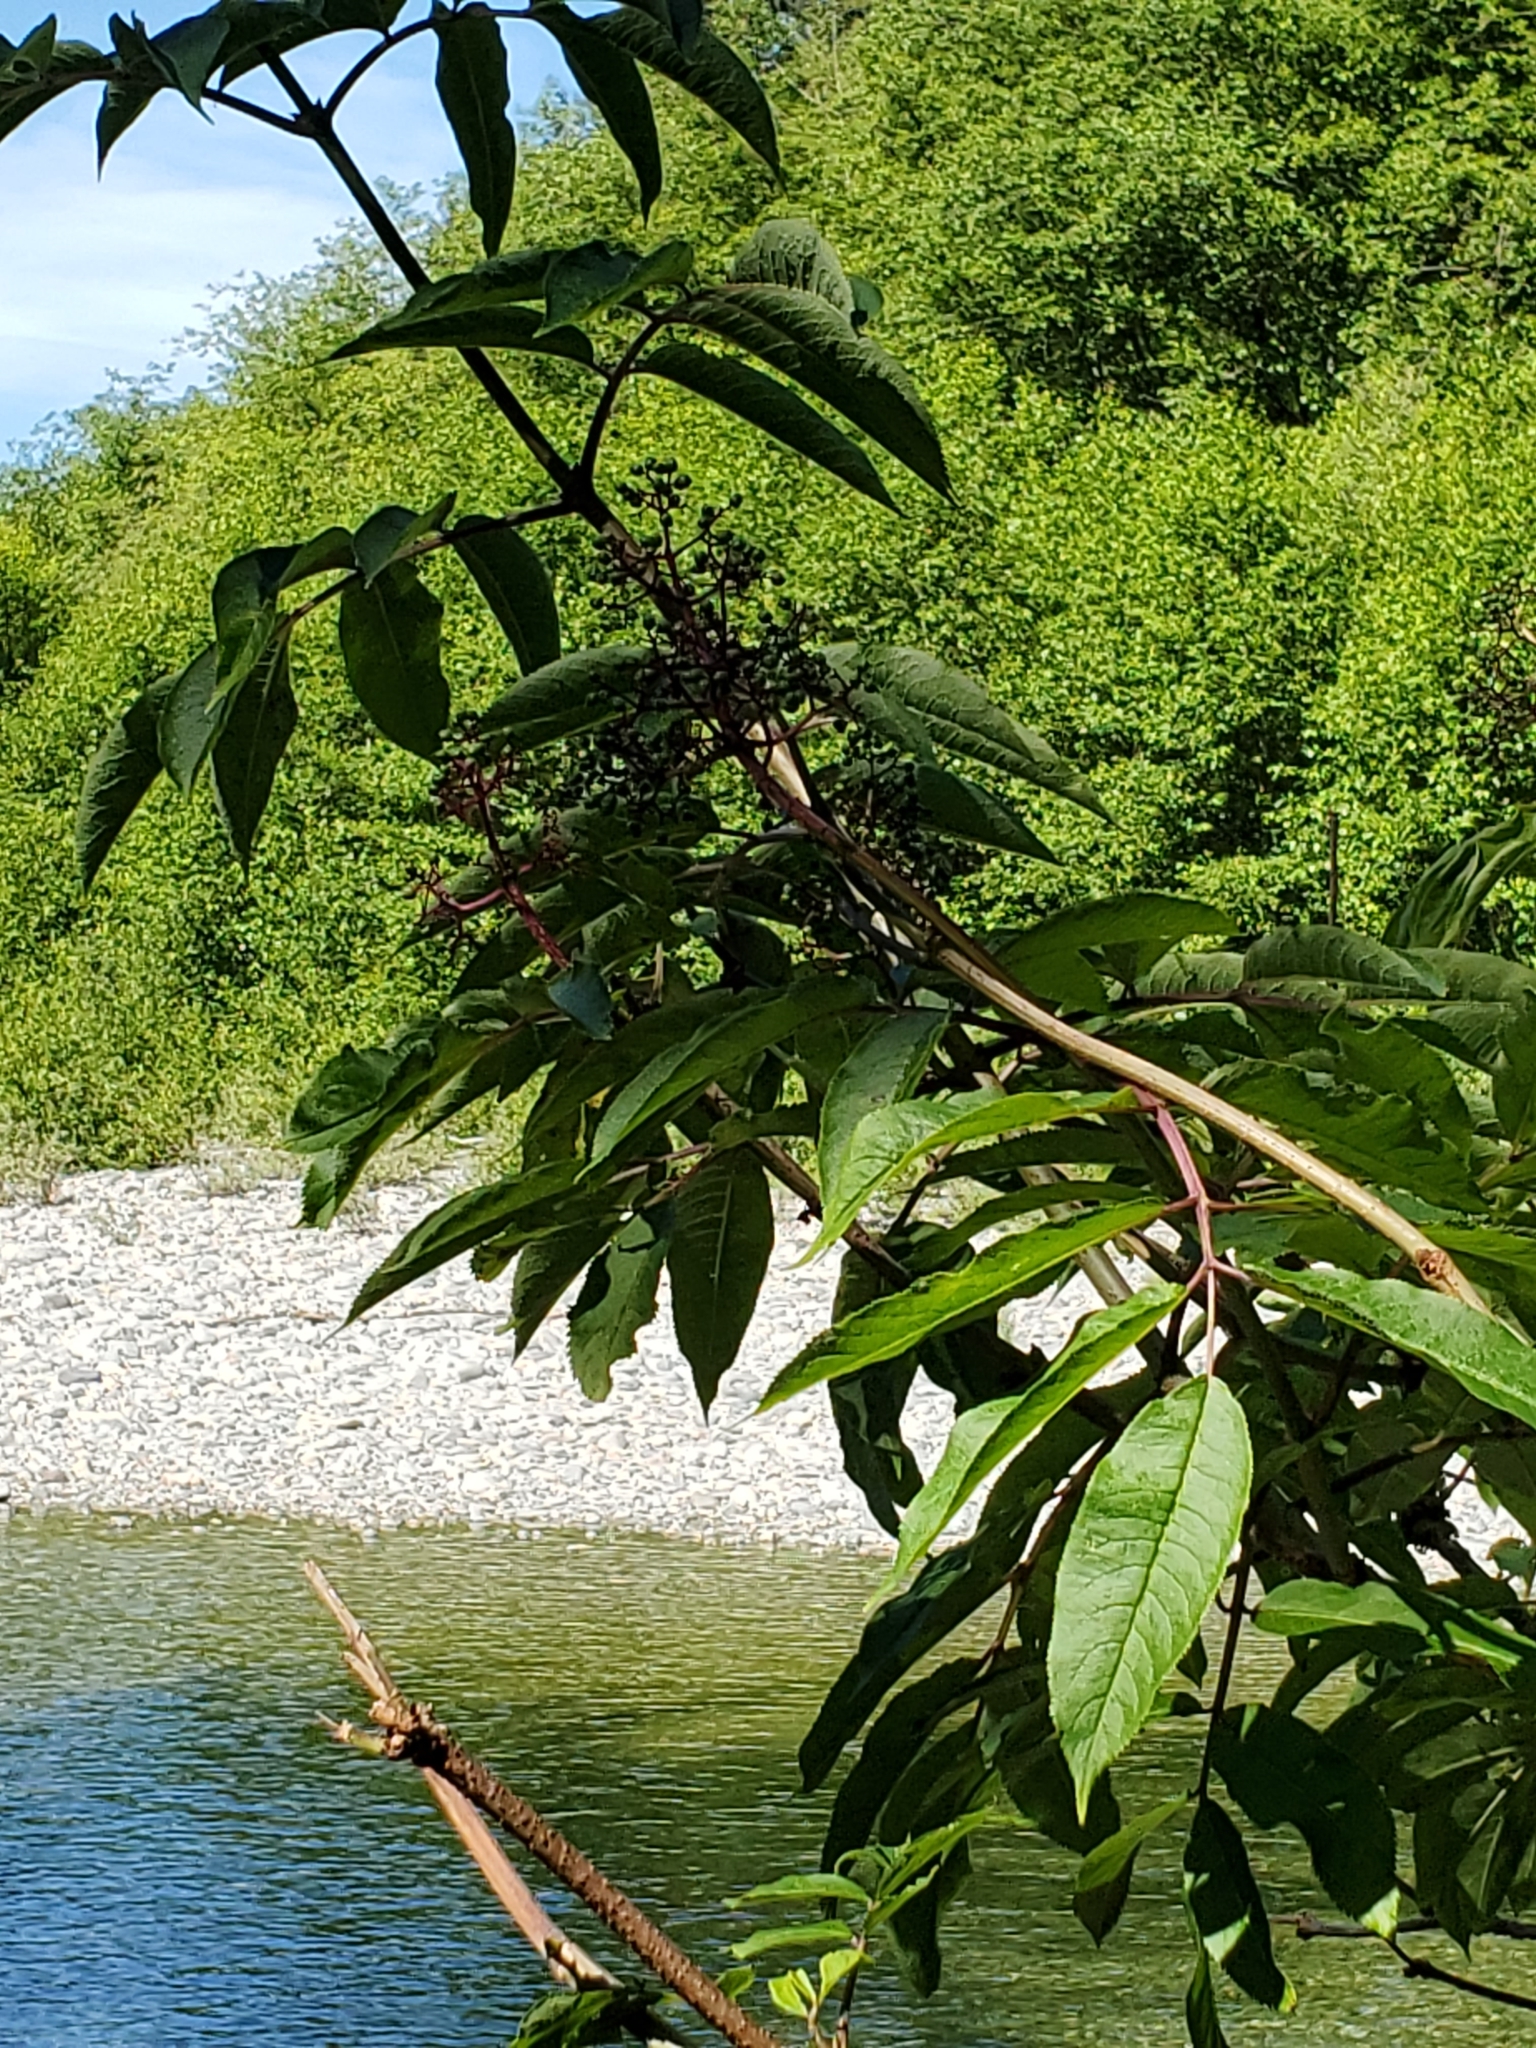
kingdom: Plantae
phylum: Tracheophyta
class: Magnoliopsida
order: Dipsacales
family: Viburnaceae
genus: Sambucus
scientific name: Sambucus racemosa
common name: Red-berried elder
